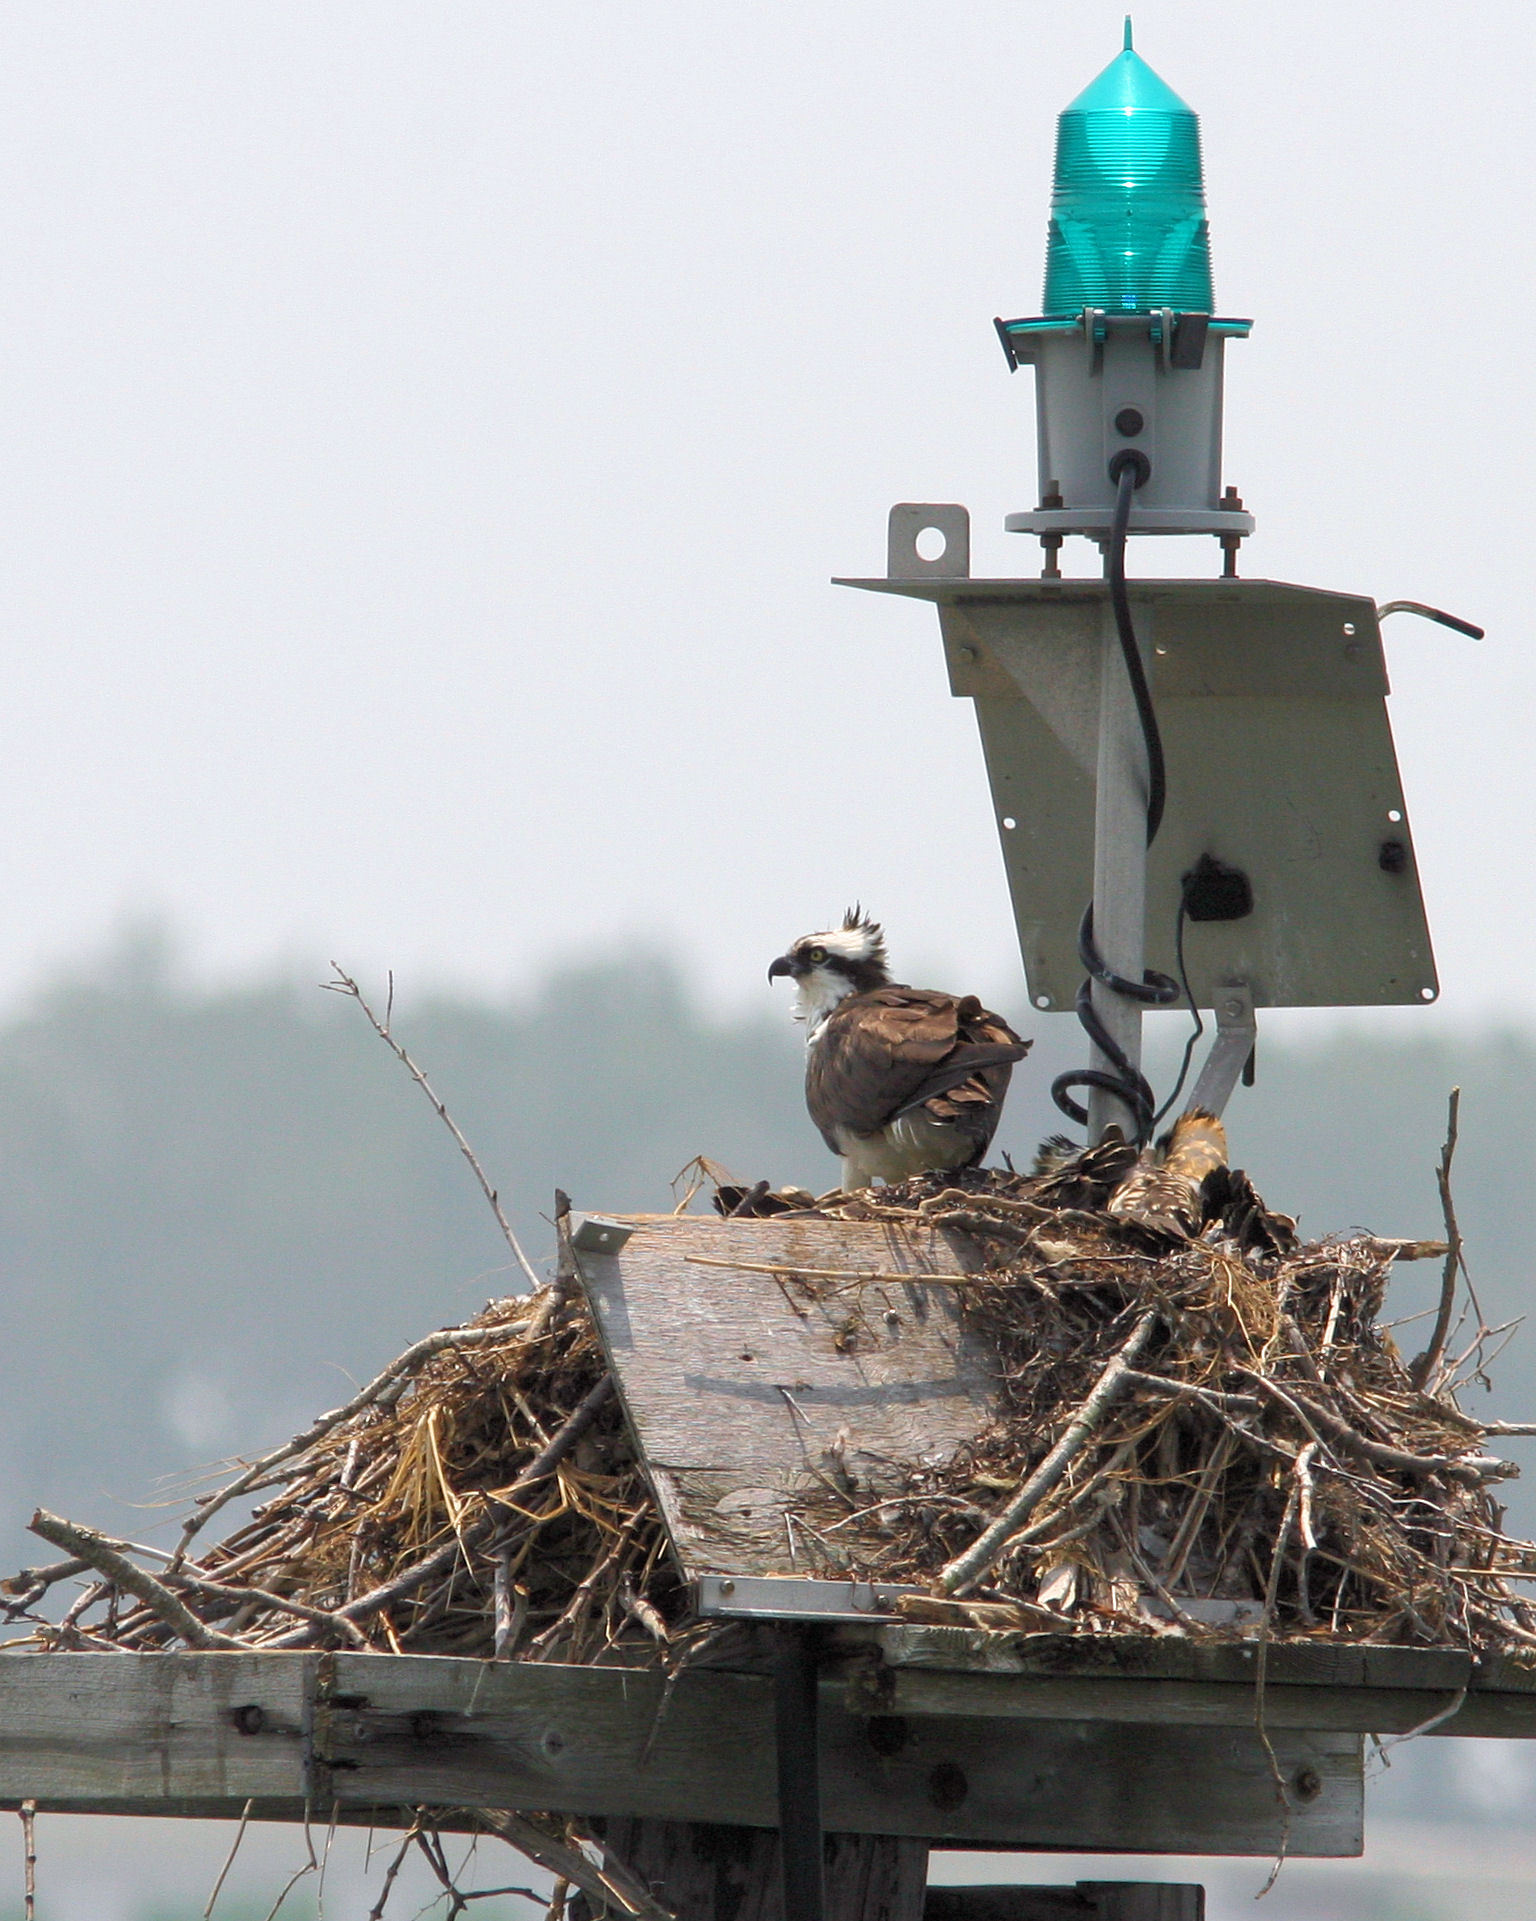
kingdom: Animalia
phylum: Chordata
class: Aves
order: Accipitriformes
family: Pandionidae
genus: Pandion
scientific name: Pandion haliaetus
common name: Osprey
